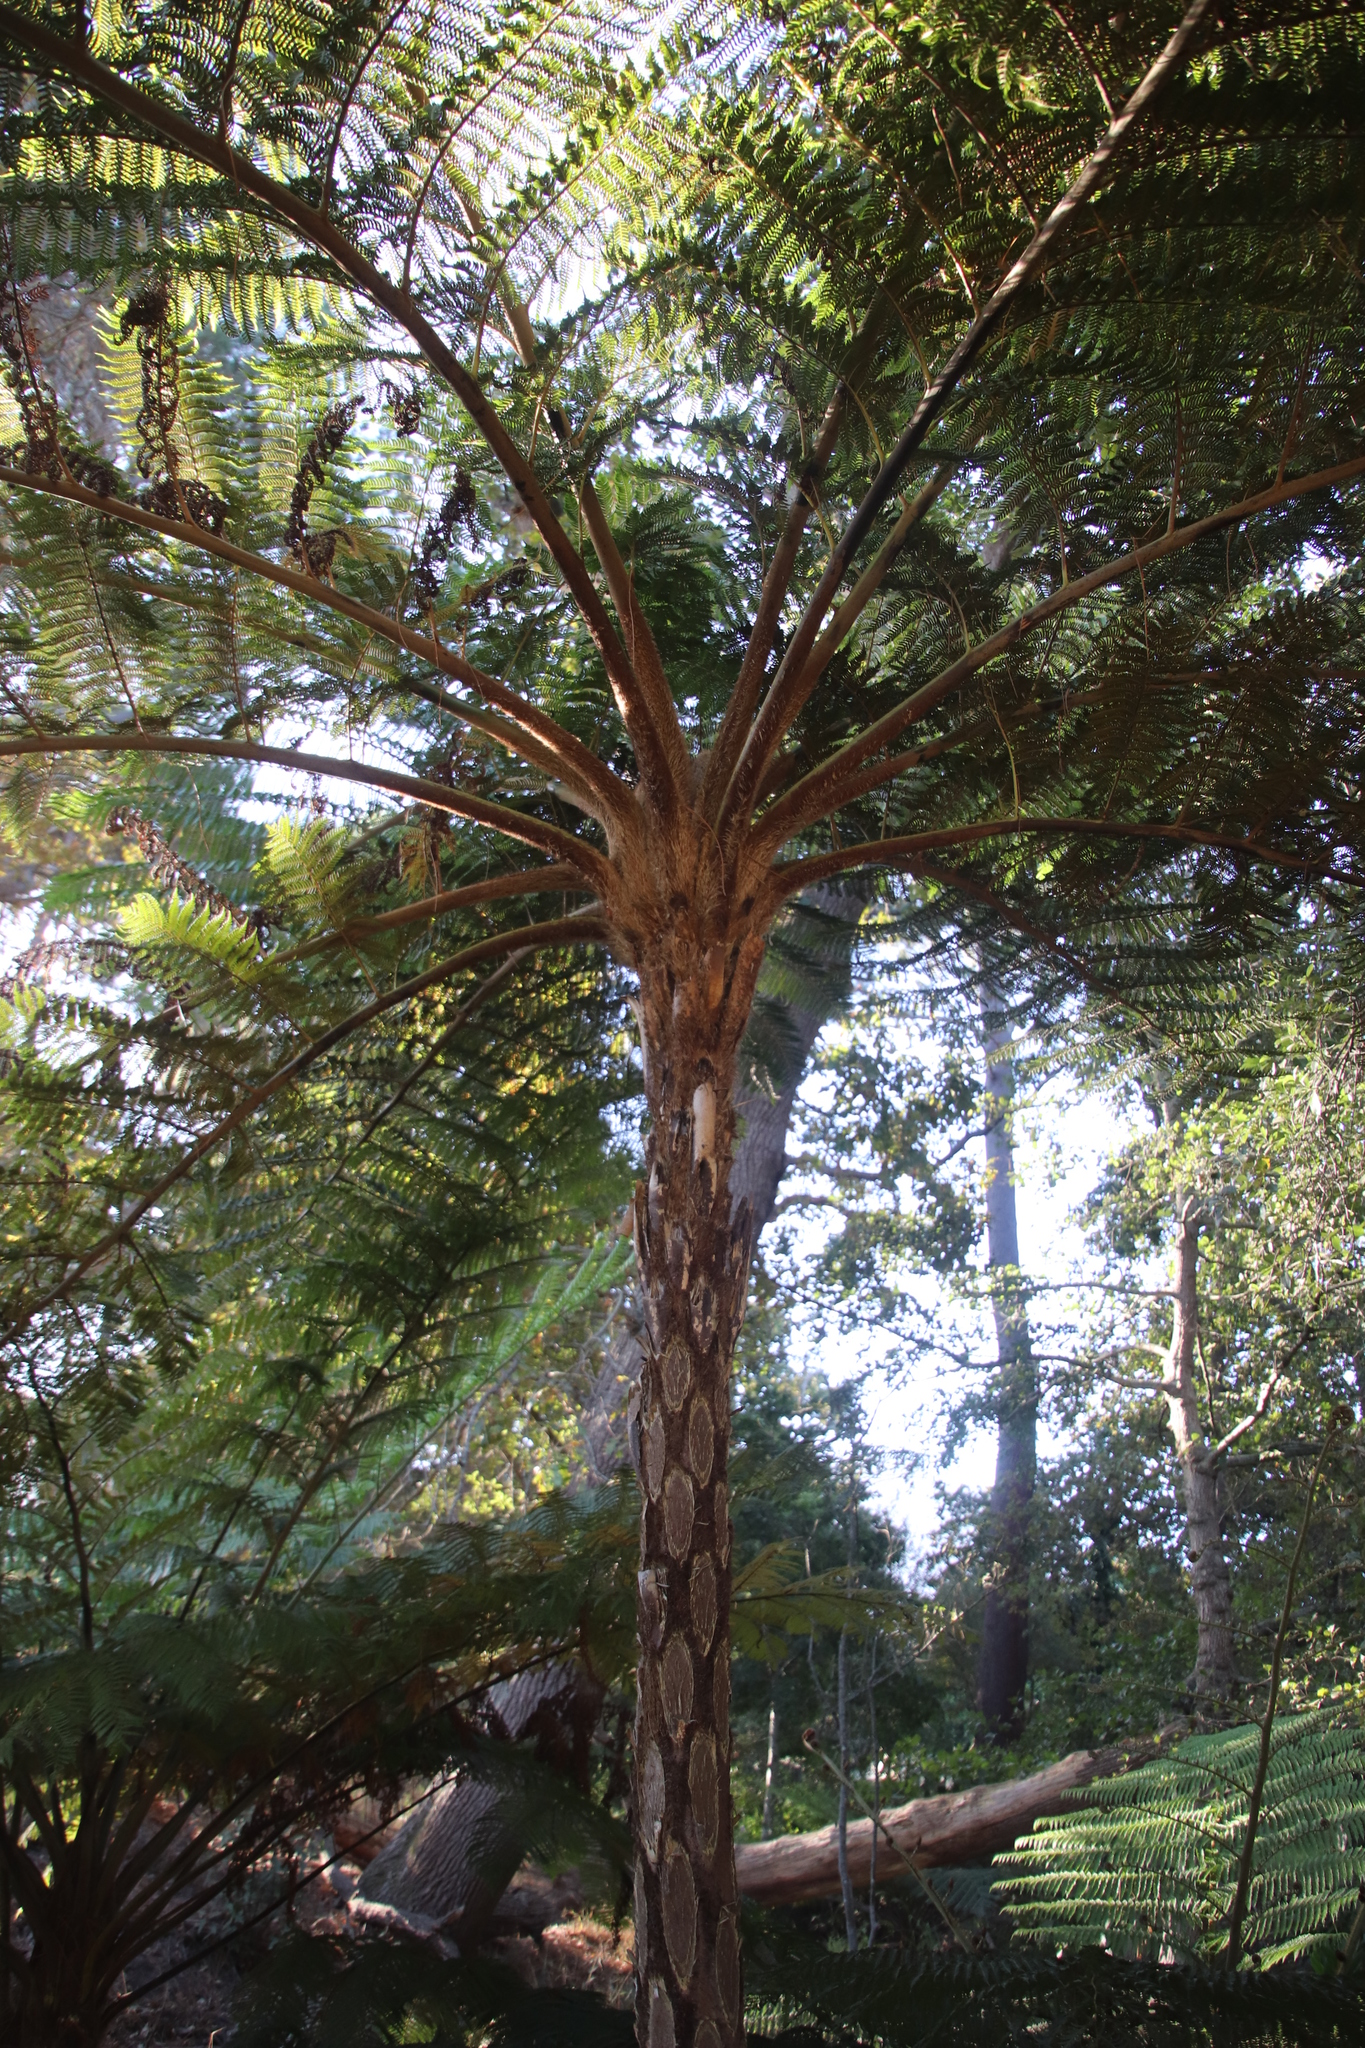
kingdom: Plantae
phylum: Tracheophyta
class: Polypodiopsida
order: Cyatheales
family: Cyatheaceae
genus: Sphaeropteris
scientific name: Sphaeropteris cooperi
